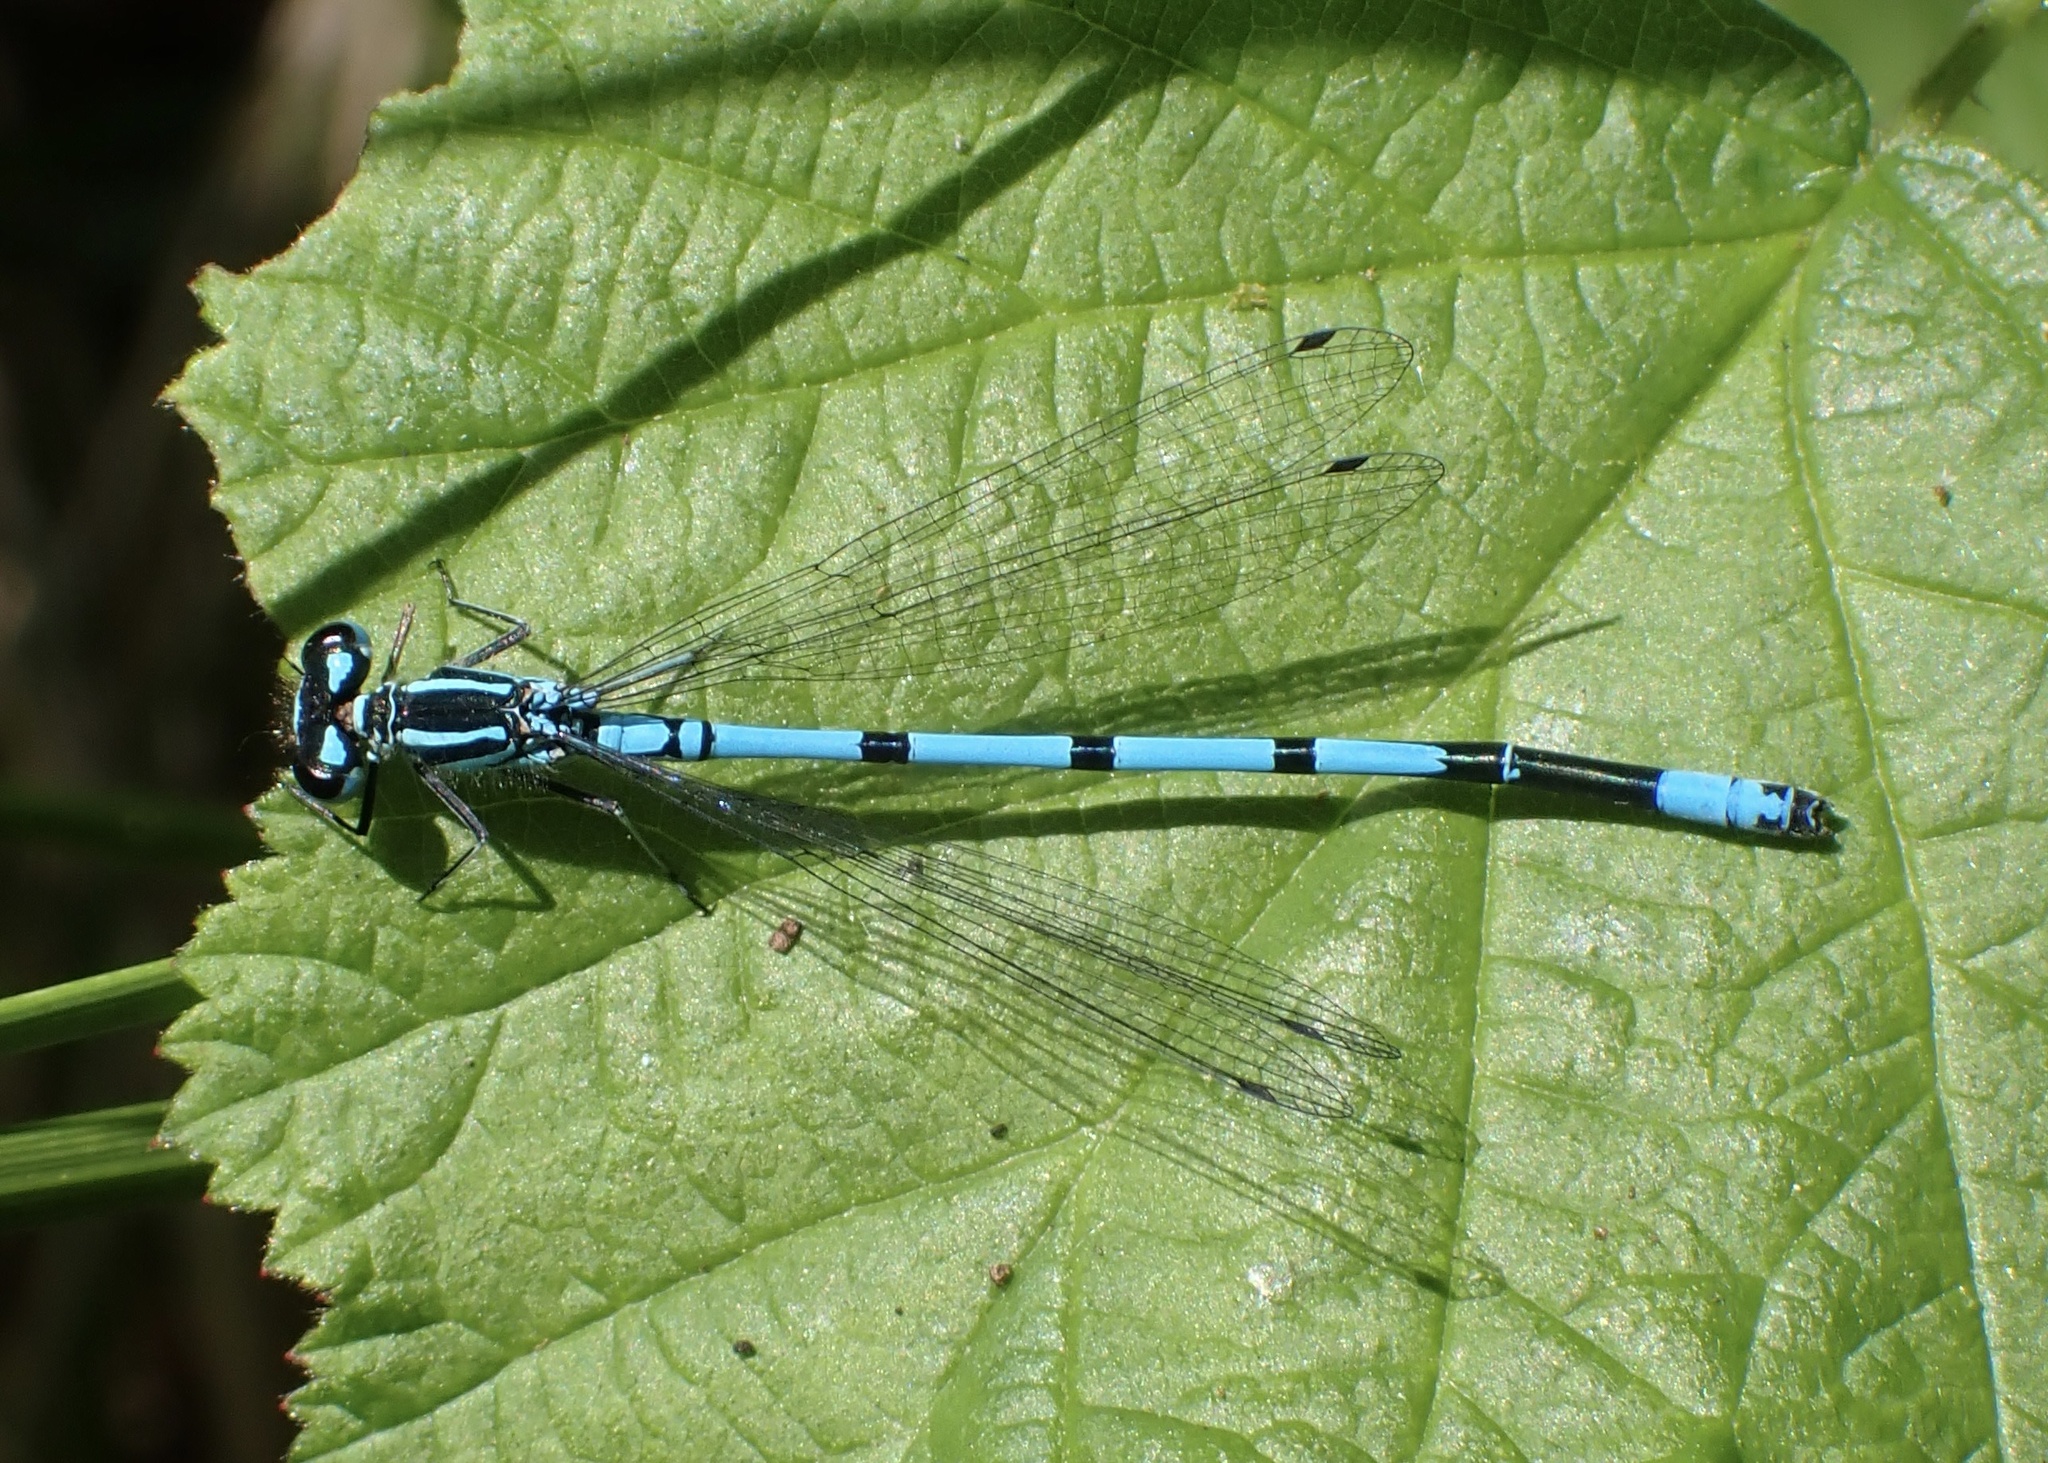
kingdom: Animalia
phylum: Arthropoda
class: Insecta
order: Odonata
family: Coenagrionidae
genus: Coenagrion
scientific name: Coenagrion puella
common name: Azure damselfly
